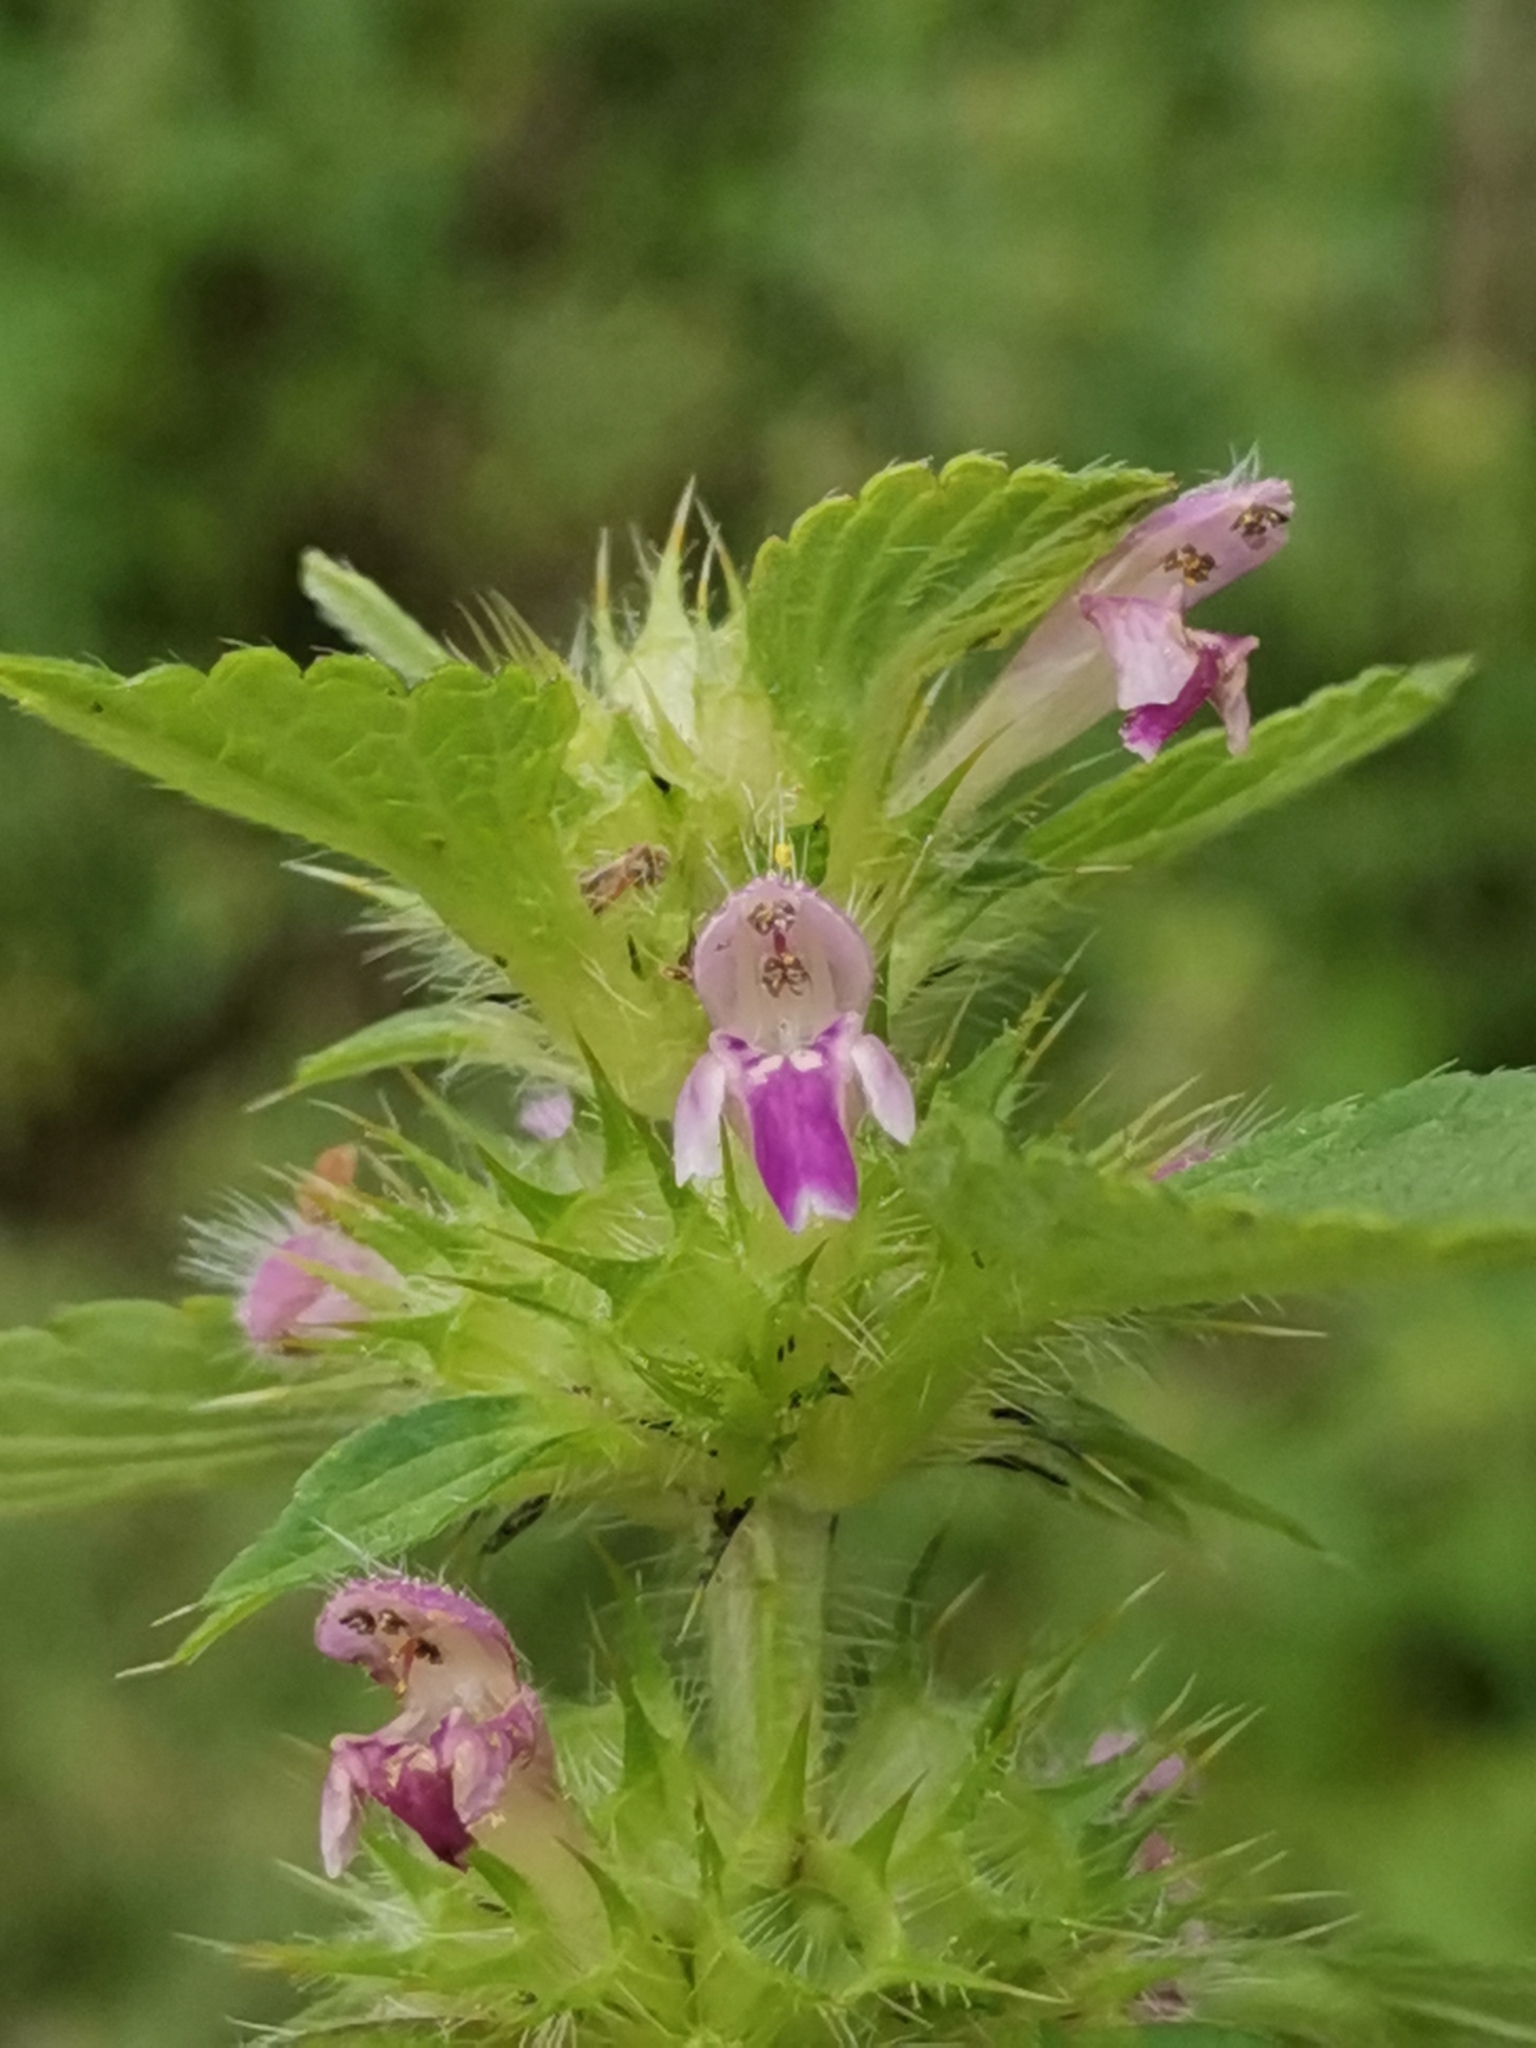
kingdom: Plantae
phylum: Tracheophyta
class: Magnoliopsida
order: Lamiales
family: Lamiaceae
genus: Galeopsis
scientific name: Galeopsis bifida
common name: Bifid hemp-nettle
